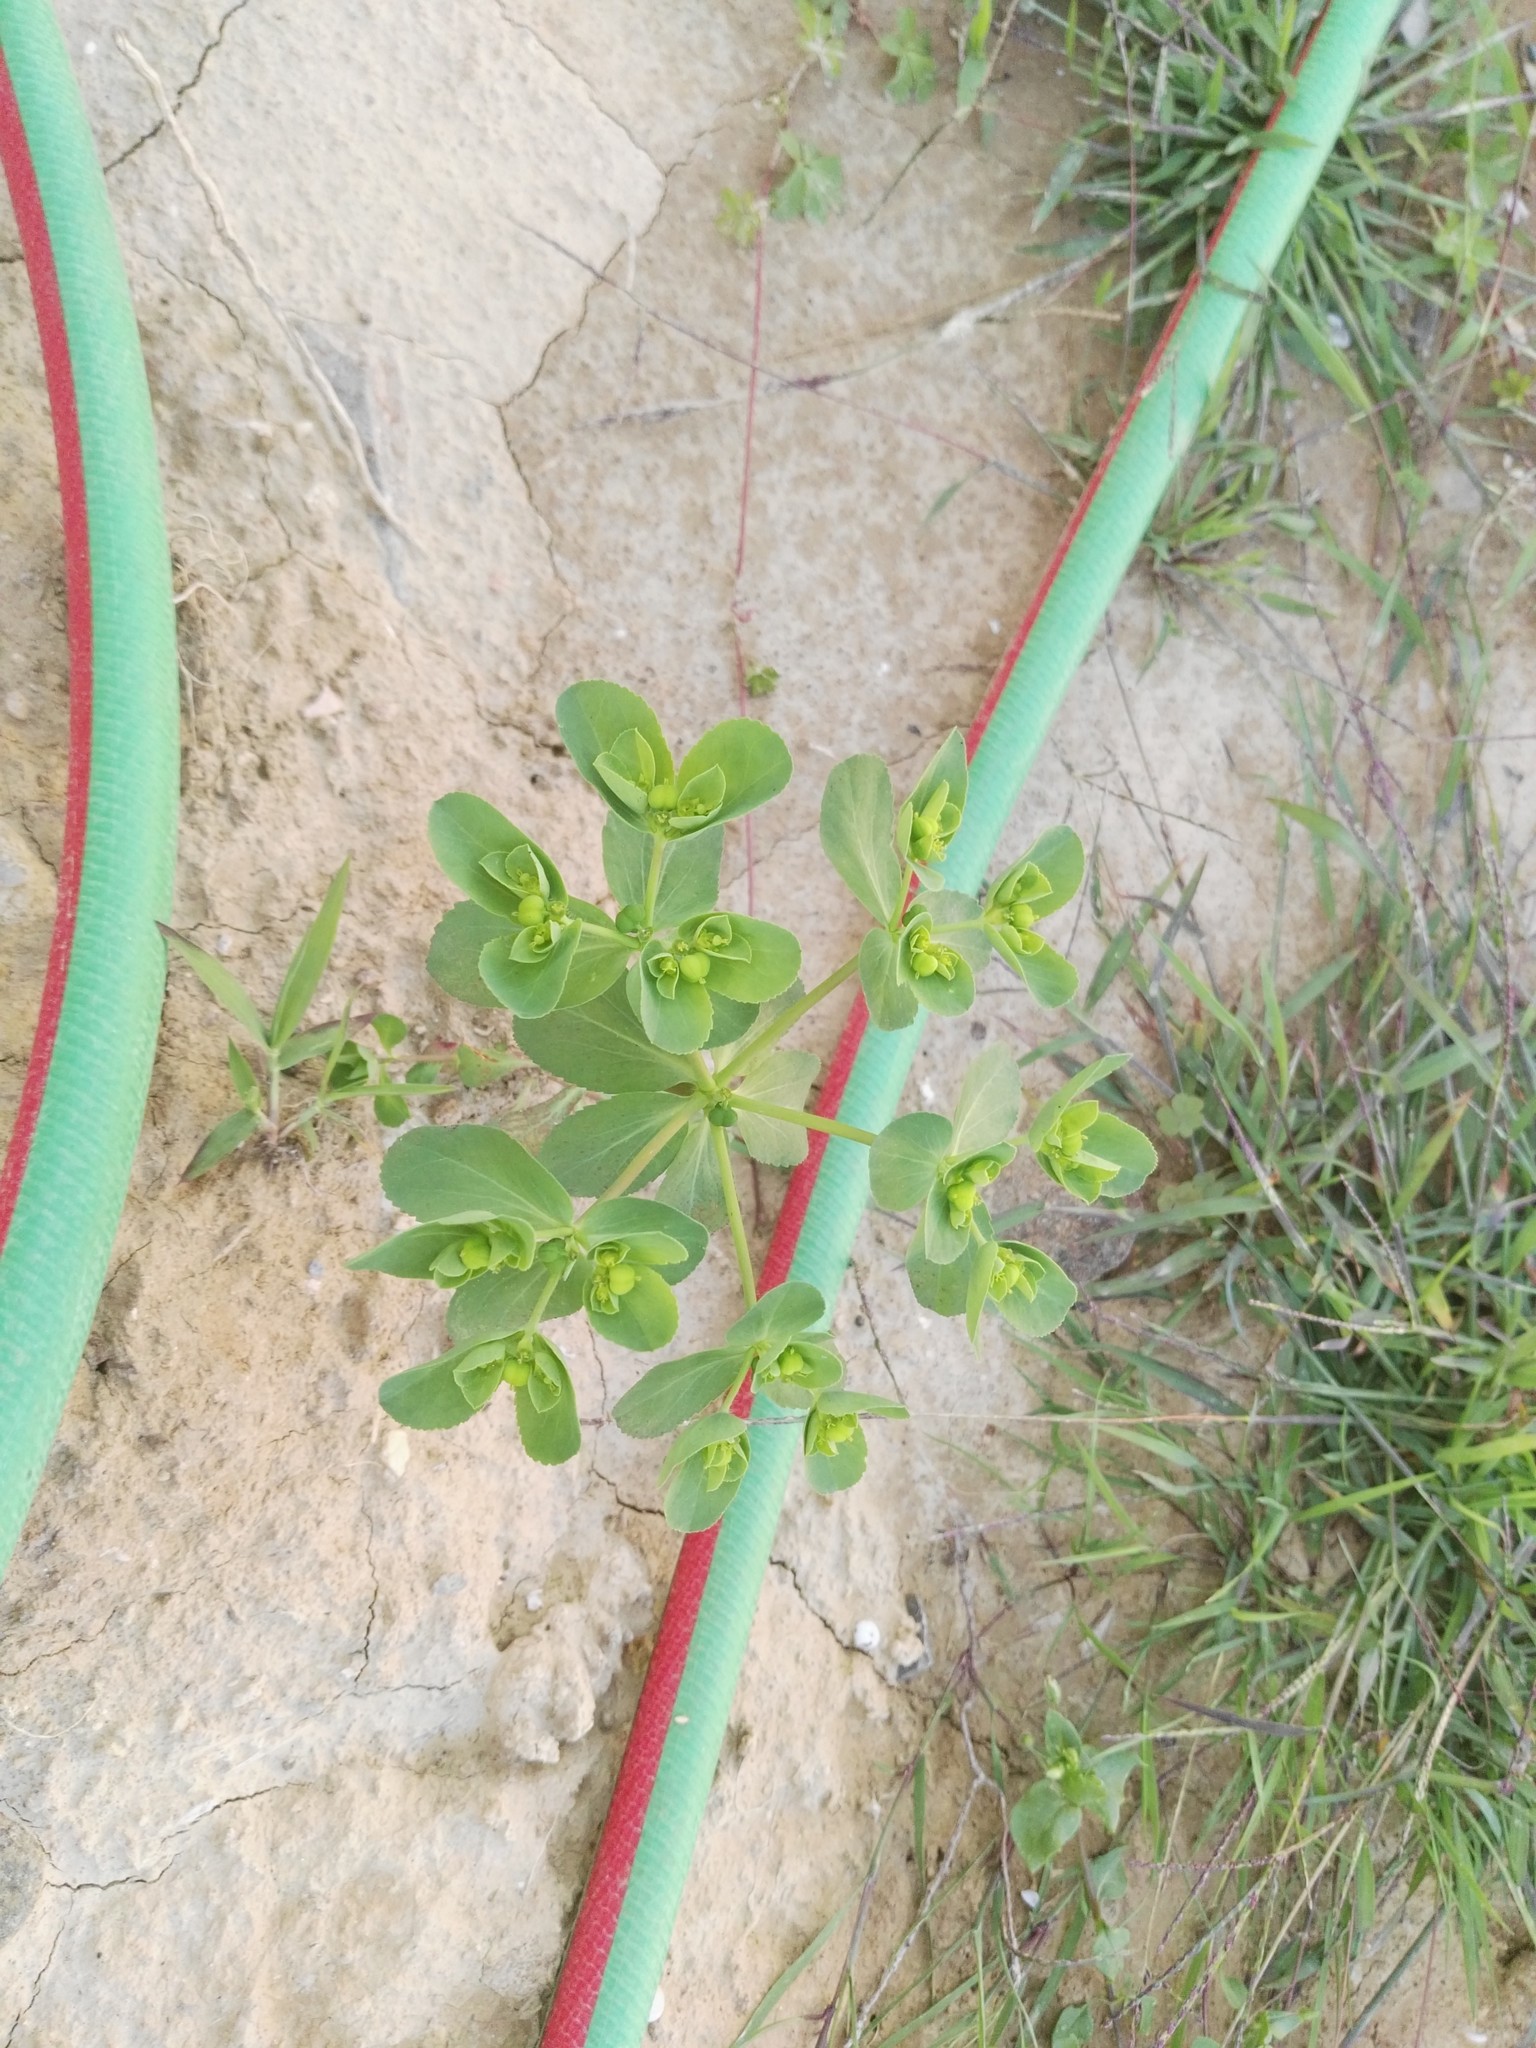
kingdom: Plantae
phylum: Tracheophyta
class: Magnoliopsida
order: Malpighiales
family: Euphorbiaceae
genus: Euphorbia
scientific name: Euphorbia helioscopia
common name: Sun spurge
